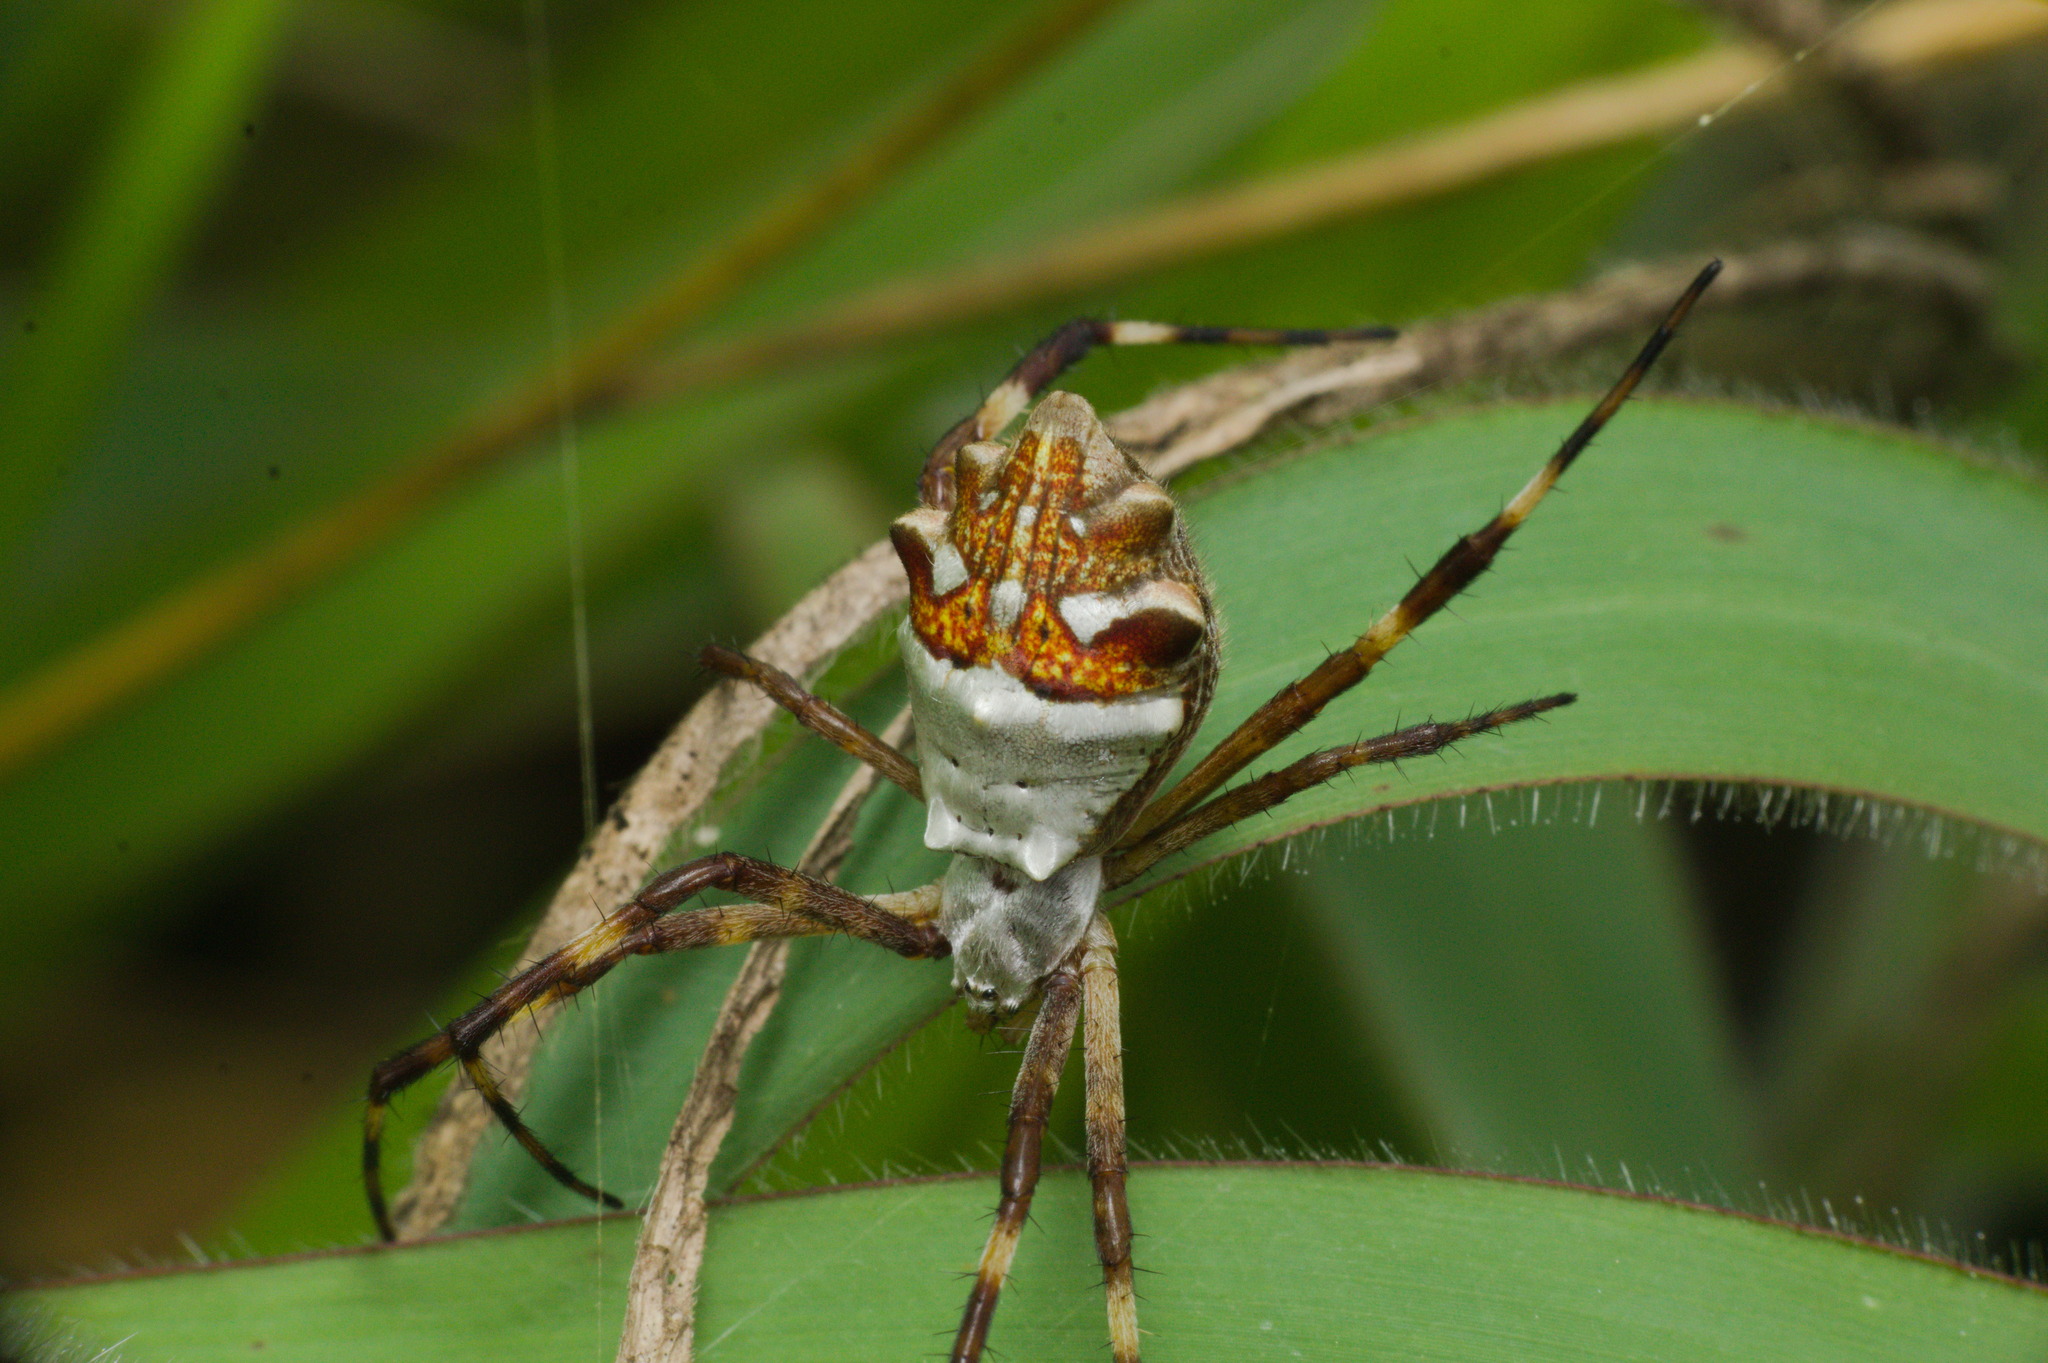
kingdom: Animalia
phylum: Arthropoda
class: Arachnida
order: Araneae
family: Araneidae
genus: Argiope
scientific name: Argiope argentata
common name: Orb weavers
